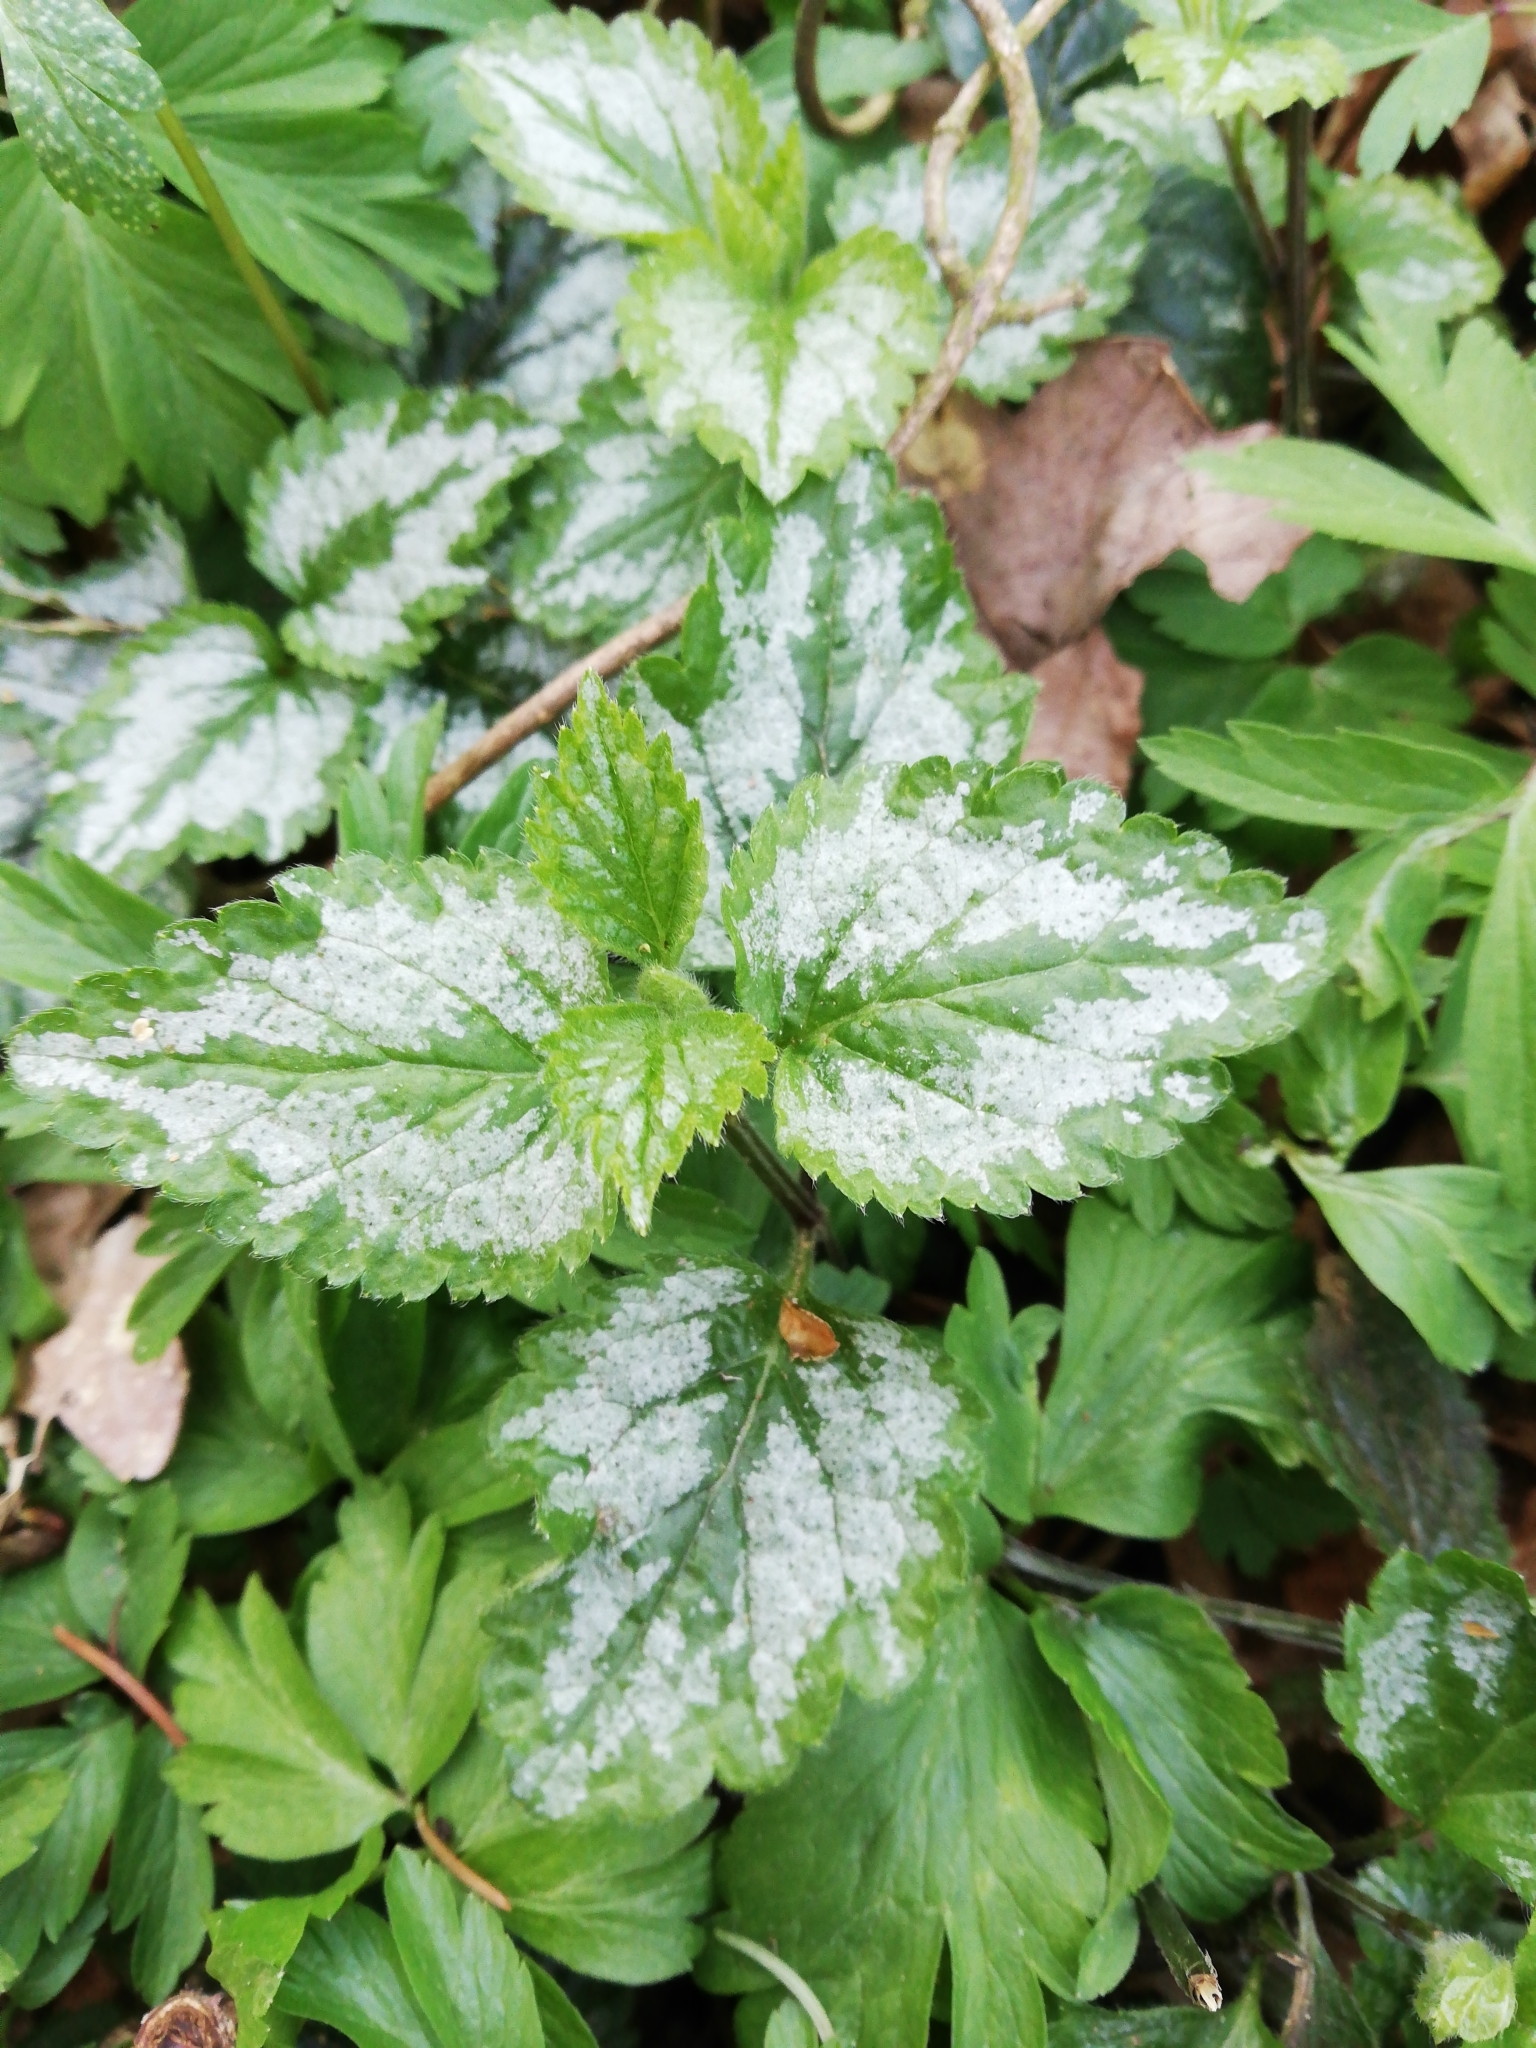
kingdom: Plantae
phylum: Tracheophyta
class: Magnoliopsida
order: Lamiales
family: Lamiaceae
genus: Lamium
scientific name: Lamium galeobdolon
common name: Yellow archangel
